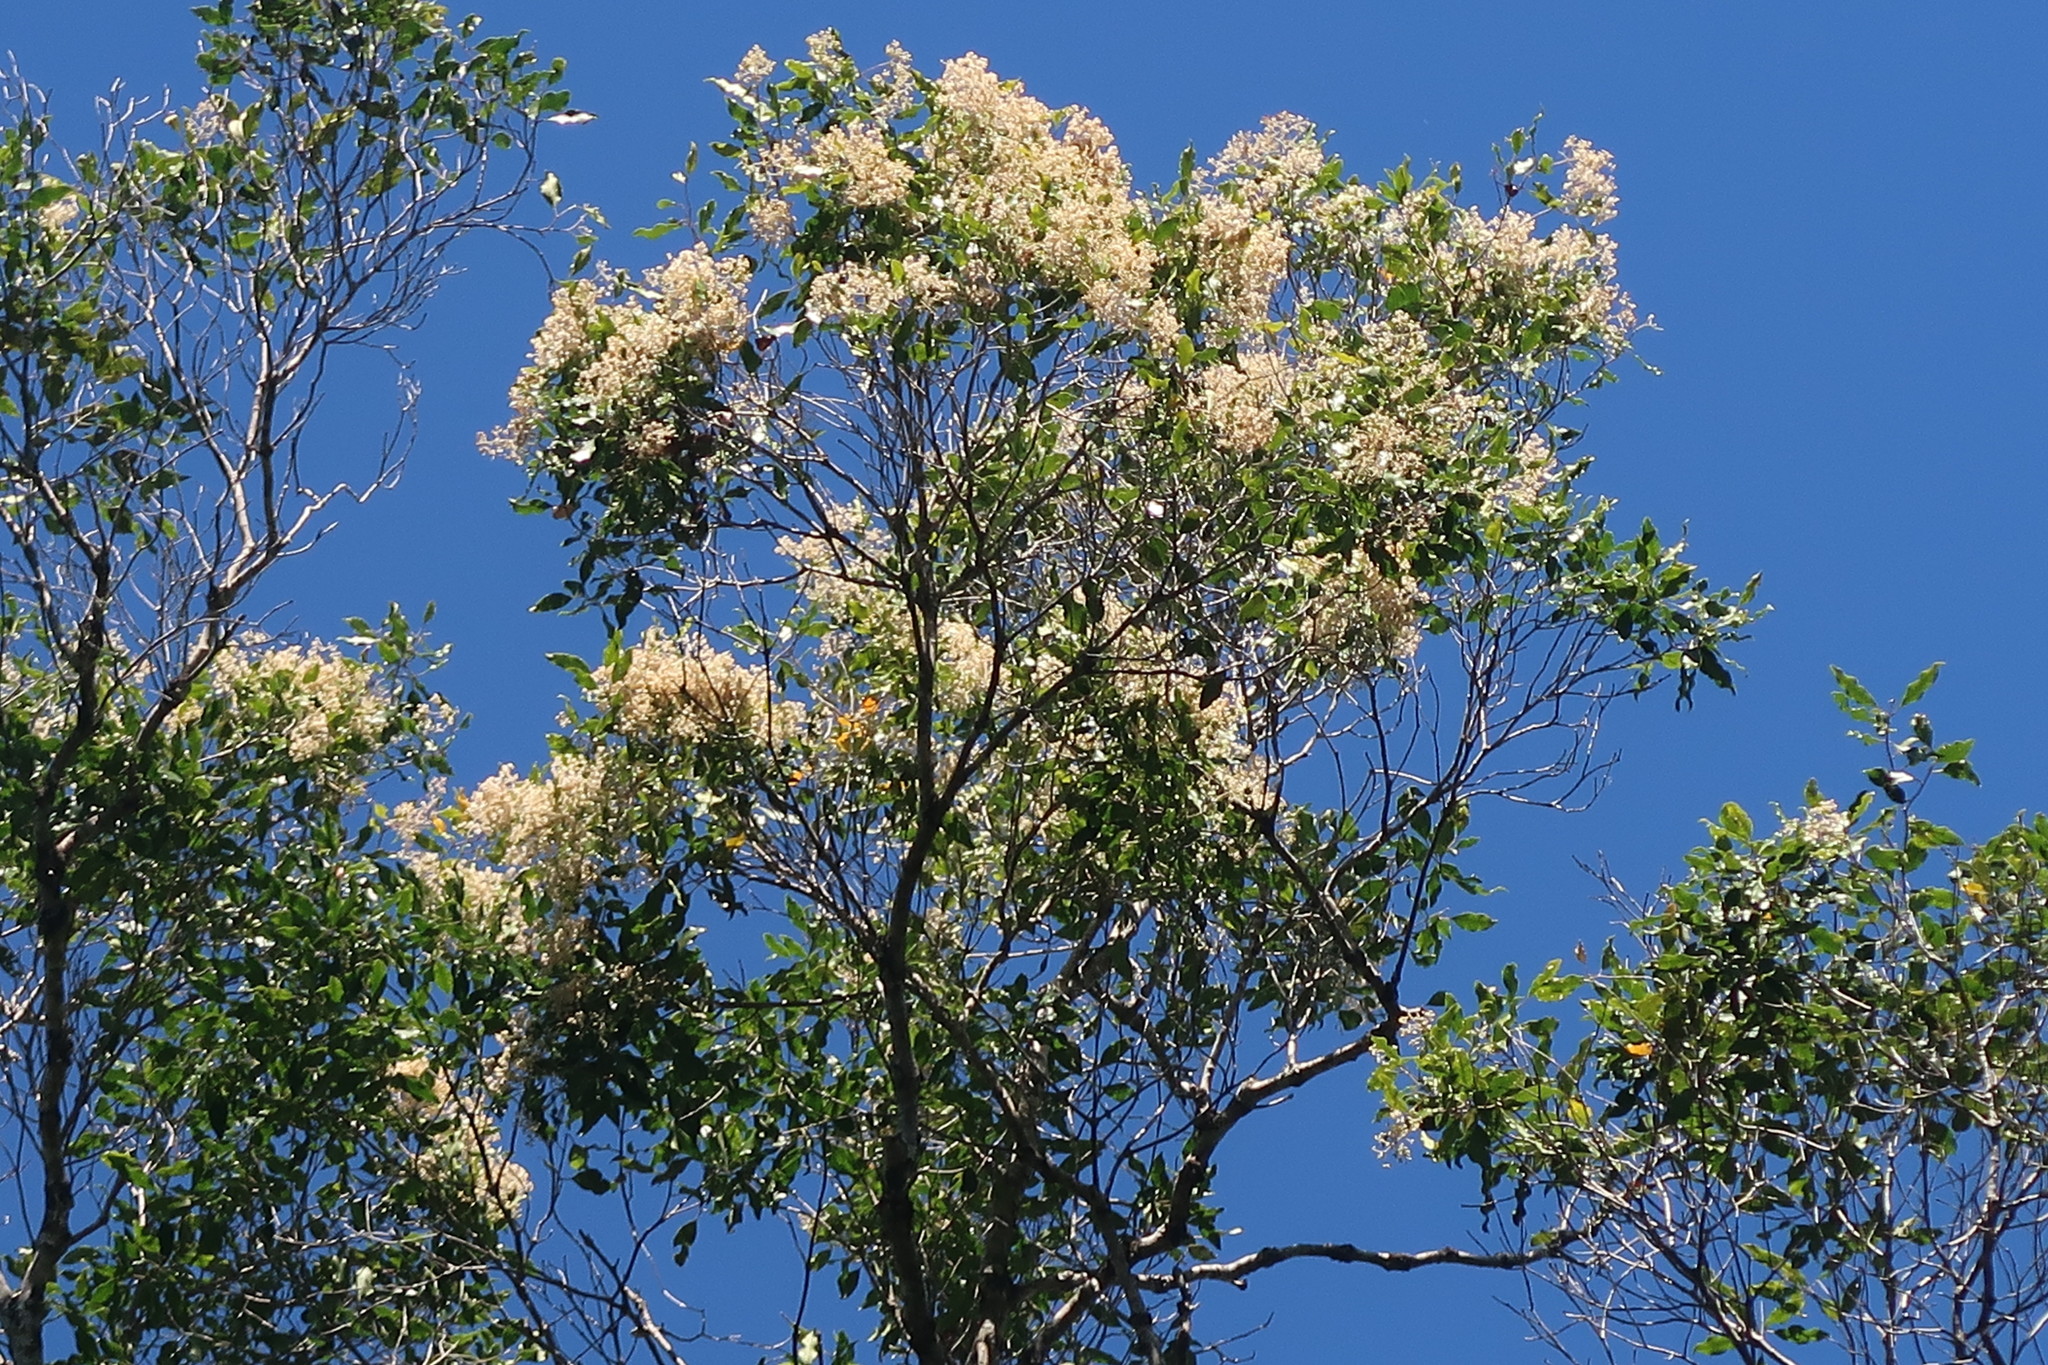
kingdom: Plantae
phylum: Tracheophyta
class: Magnoliopsida
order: Lamiales
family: Oleaceae
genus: Olea
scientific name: Olea capensis
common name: Black ironwood
